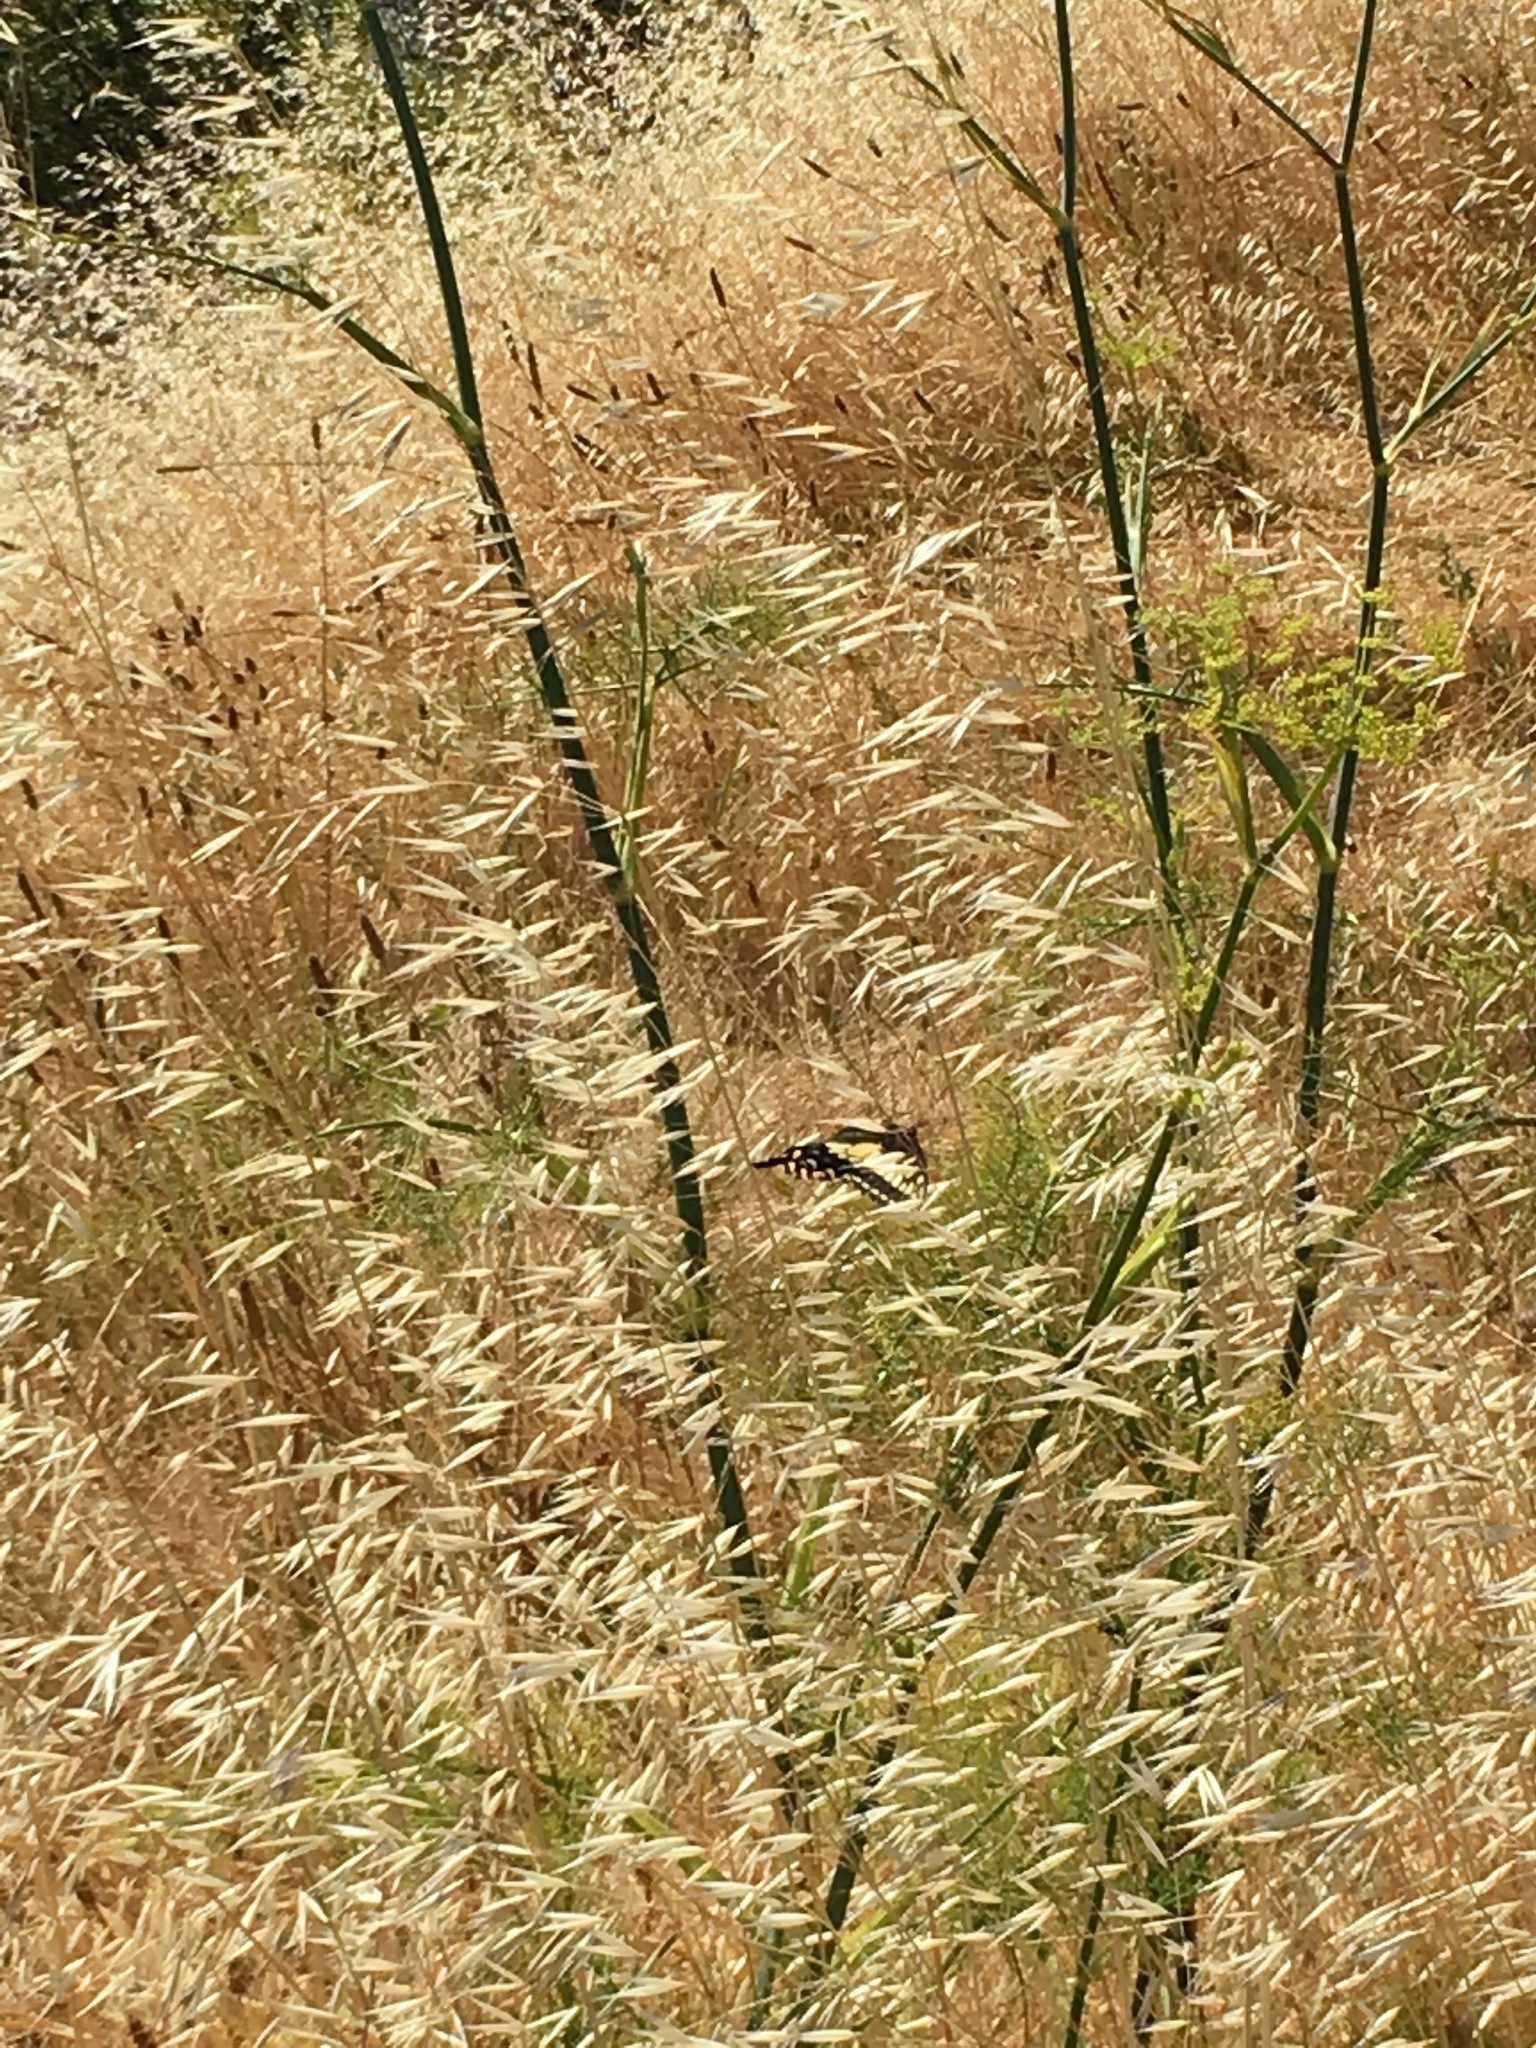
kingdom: Animalia
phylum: Arthropoda
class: Insecta
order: Lepidoptera
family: Papilionidae
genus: Papilio
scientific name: Papilio zelicaon
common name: Anise swallowtail
